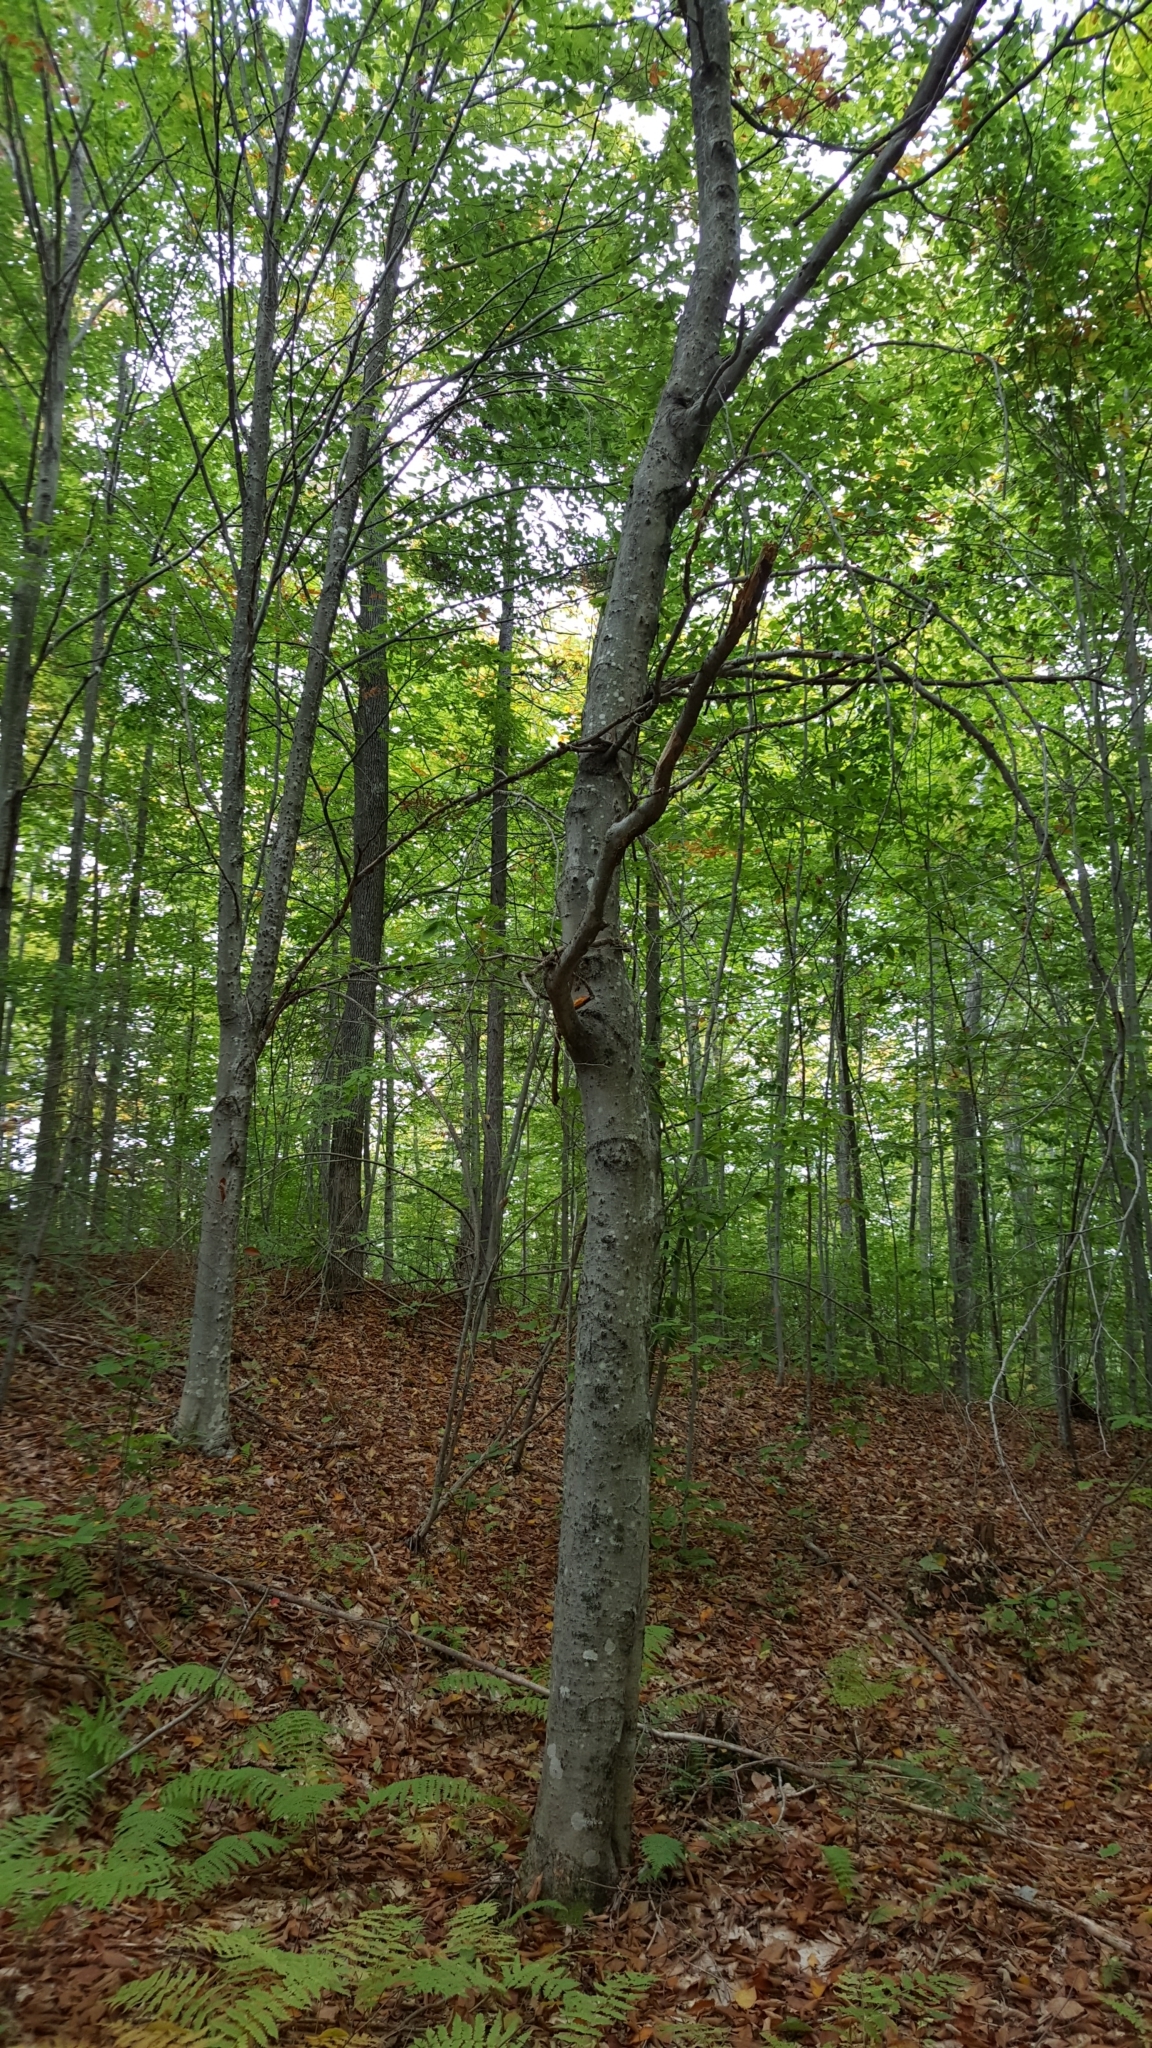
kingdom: Plantae
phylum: Tracheophyta
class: Magnoliopsida
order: Fagales
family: Fagaceae
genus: Fagus
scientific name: Fagus grandifolia
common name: American beech
